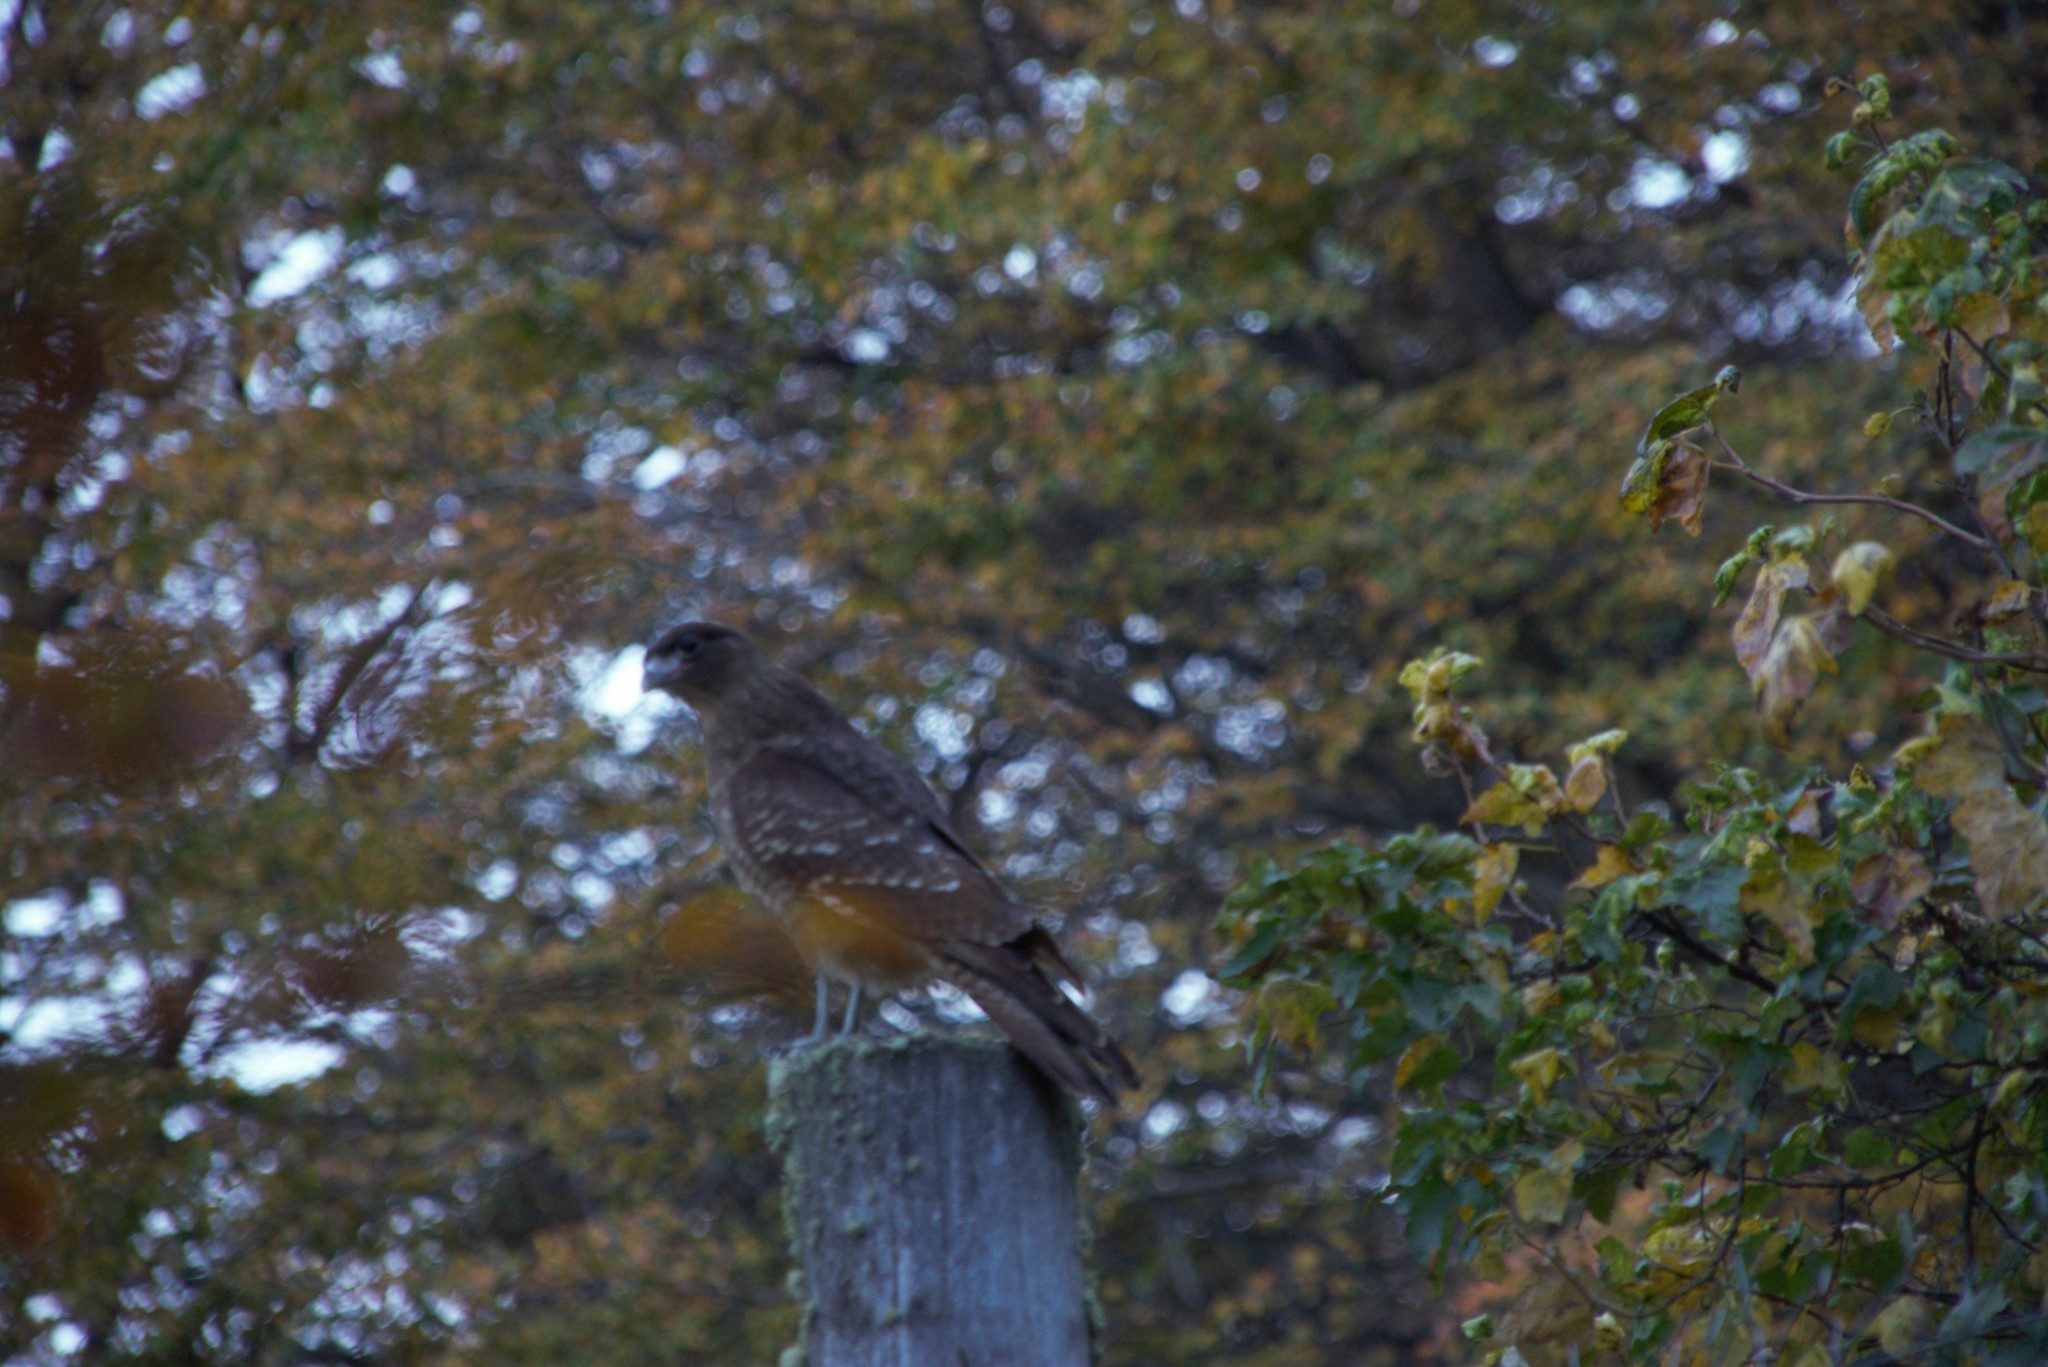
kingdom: Animalia
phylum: Chordata
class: Aves
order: Falconiformes
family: Falconidae
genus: Daptrius
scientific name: Daptrius
